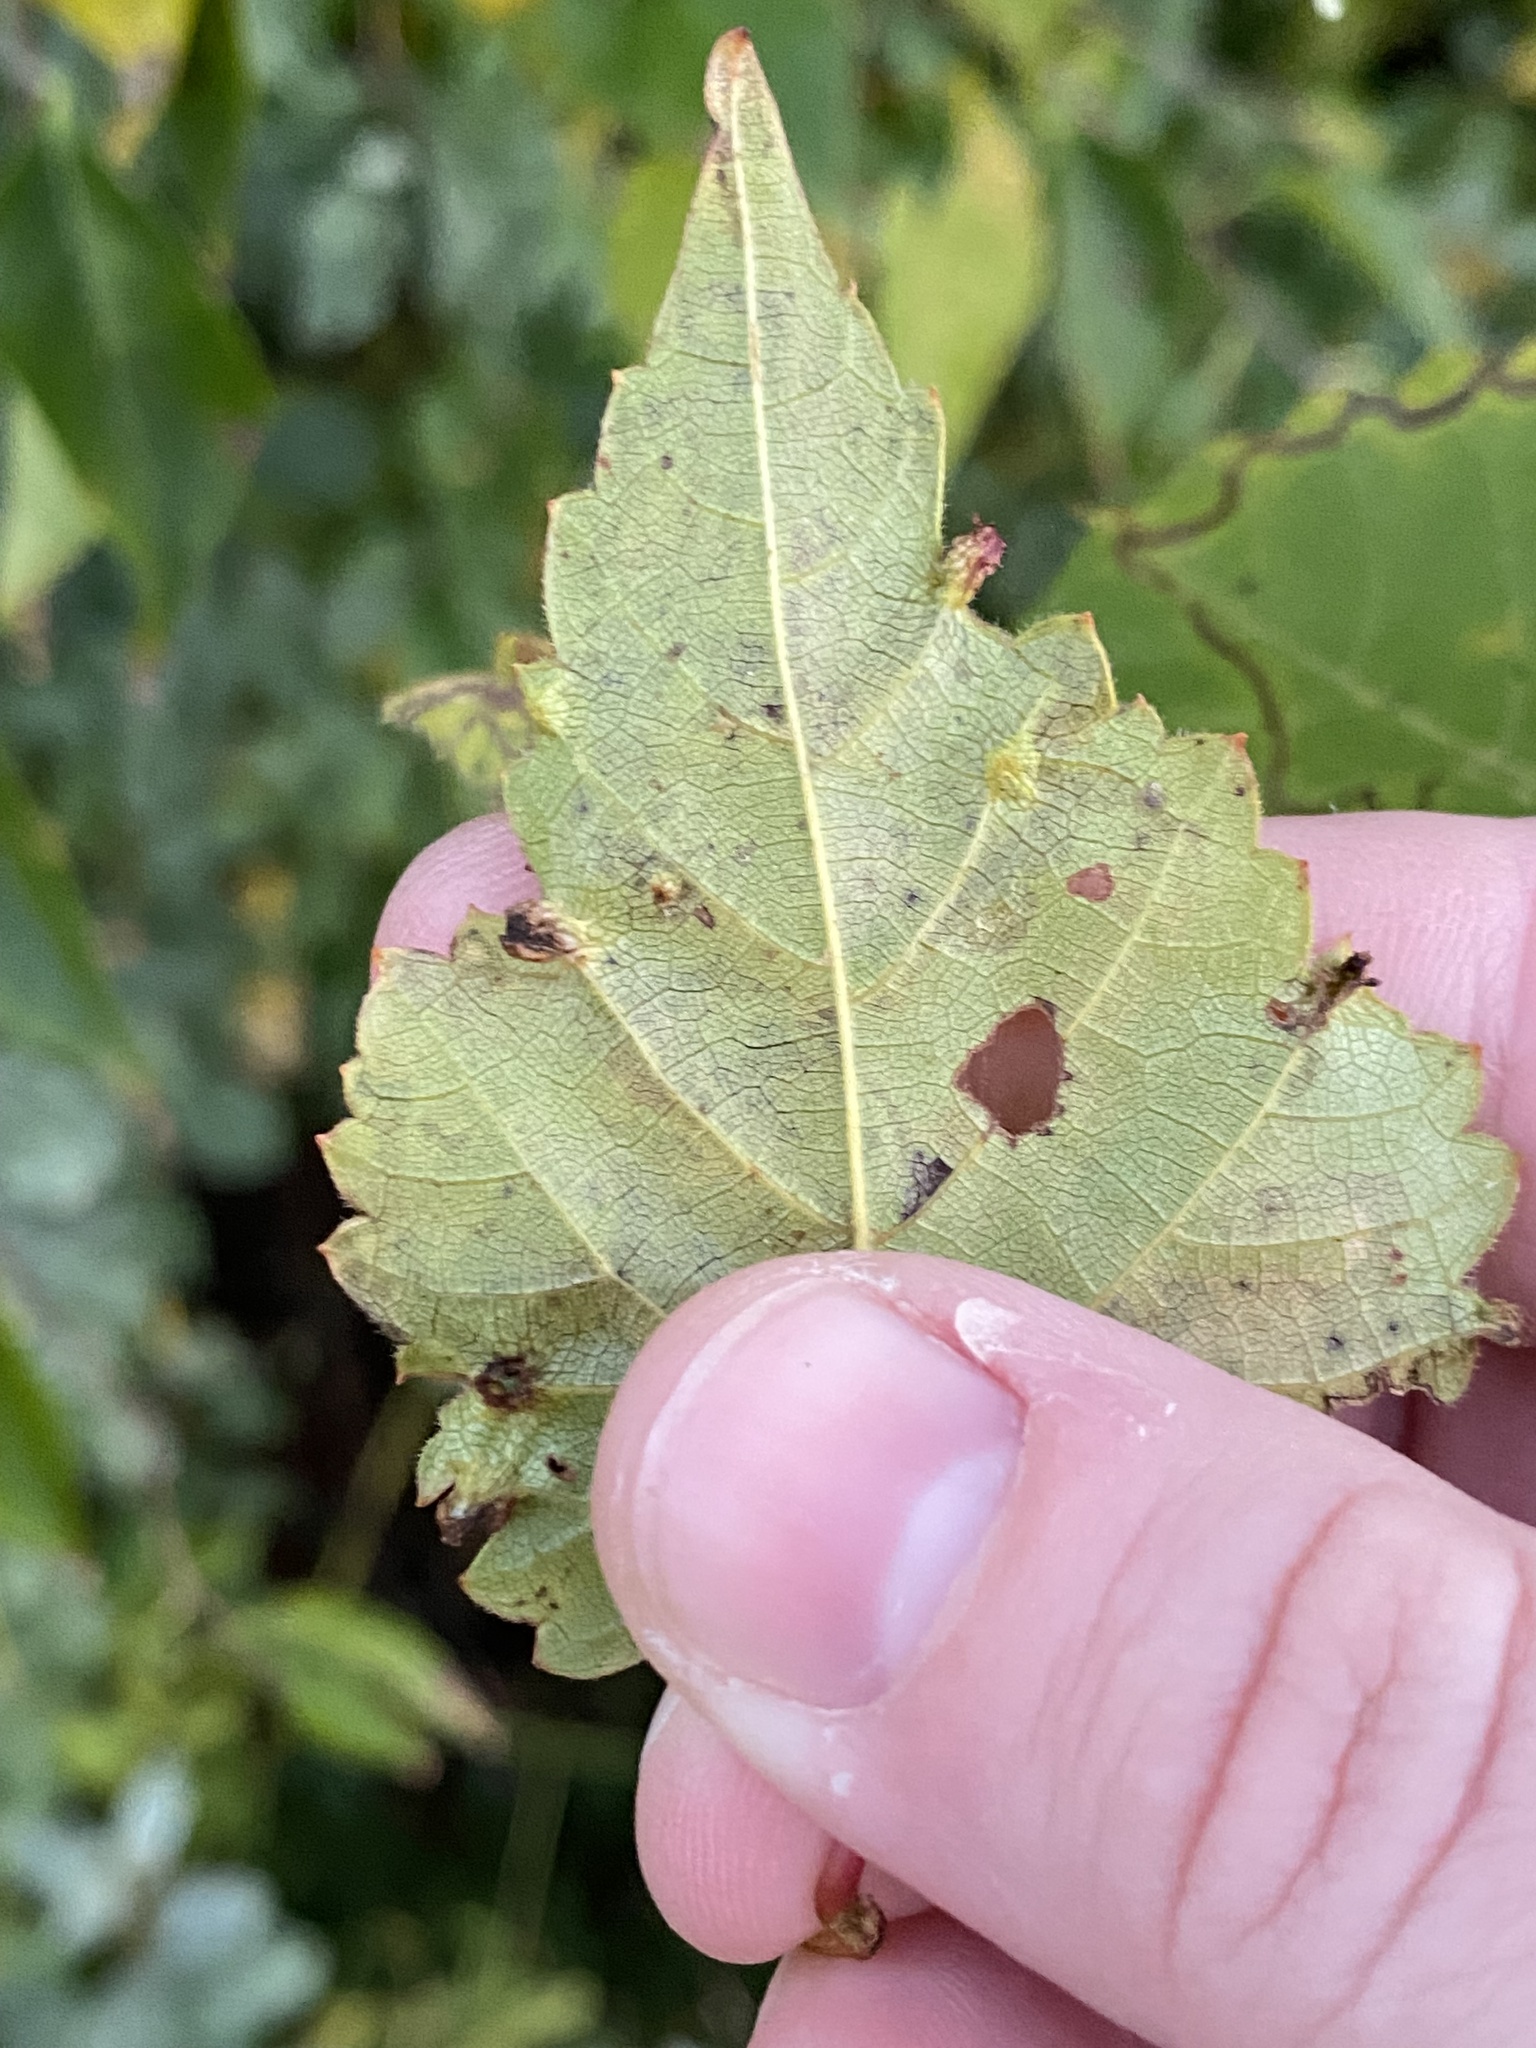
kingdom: Animalia
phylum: Arthropoda
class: Insecta
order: Hemiptera
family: Phylloxeridae
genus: Daktulosphaira
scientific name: Daktulosphaira vitifoliae
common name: Grape phylloxera
